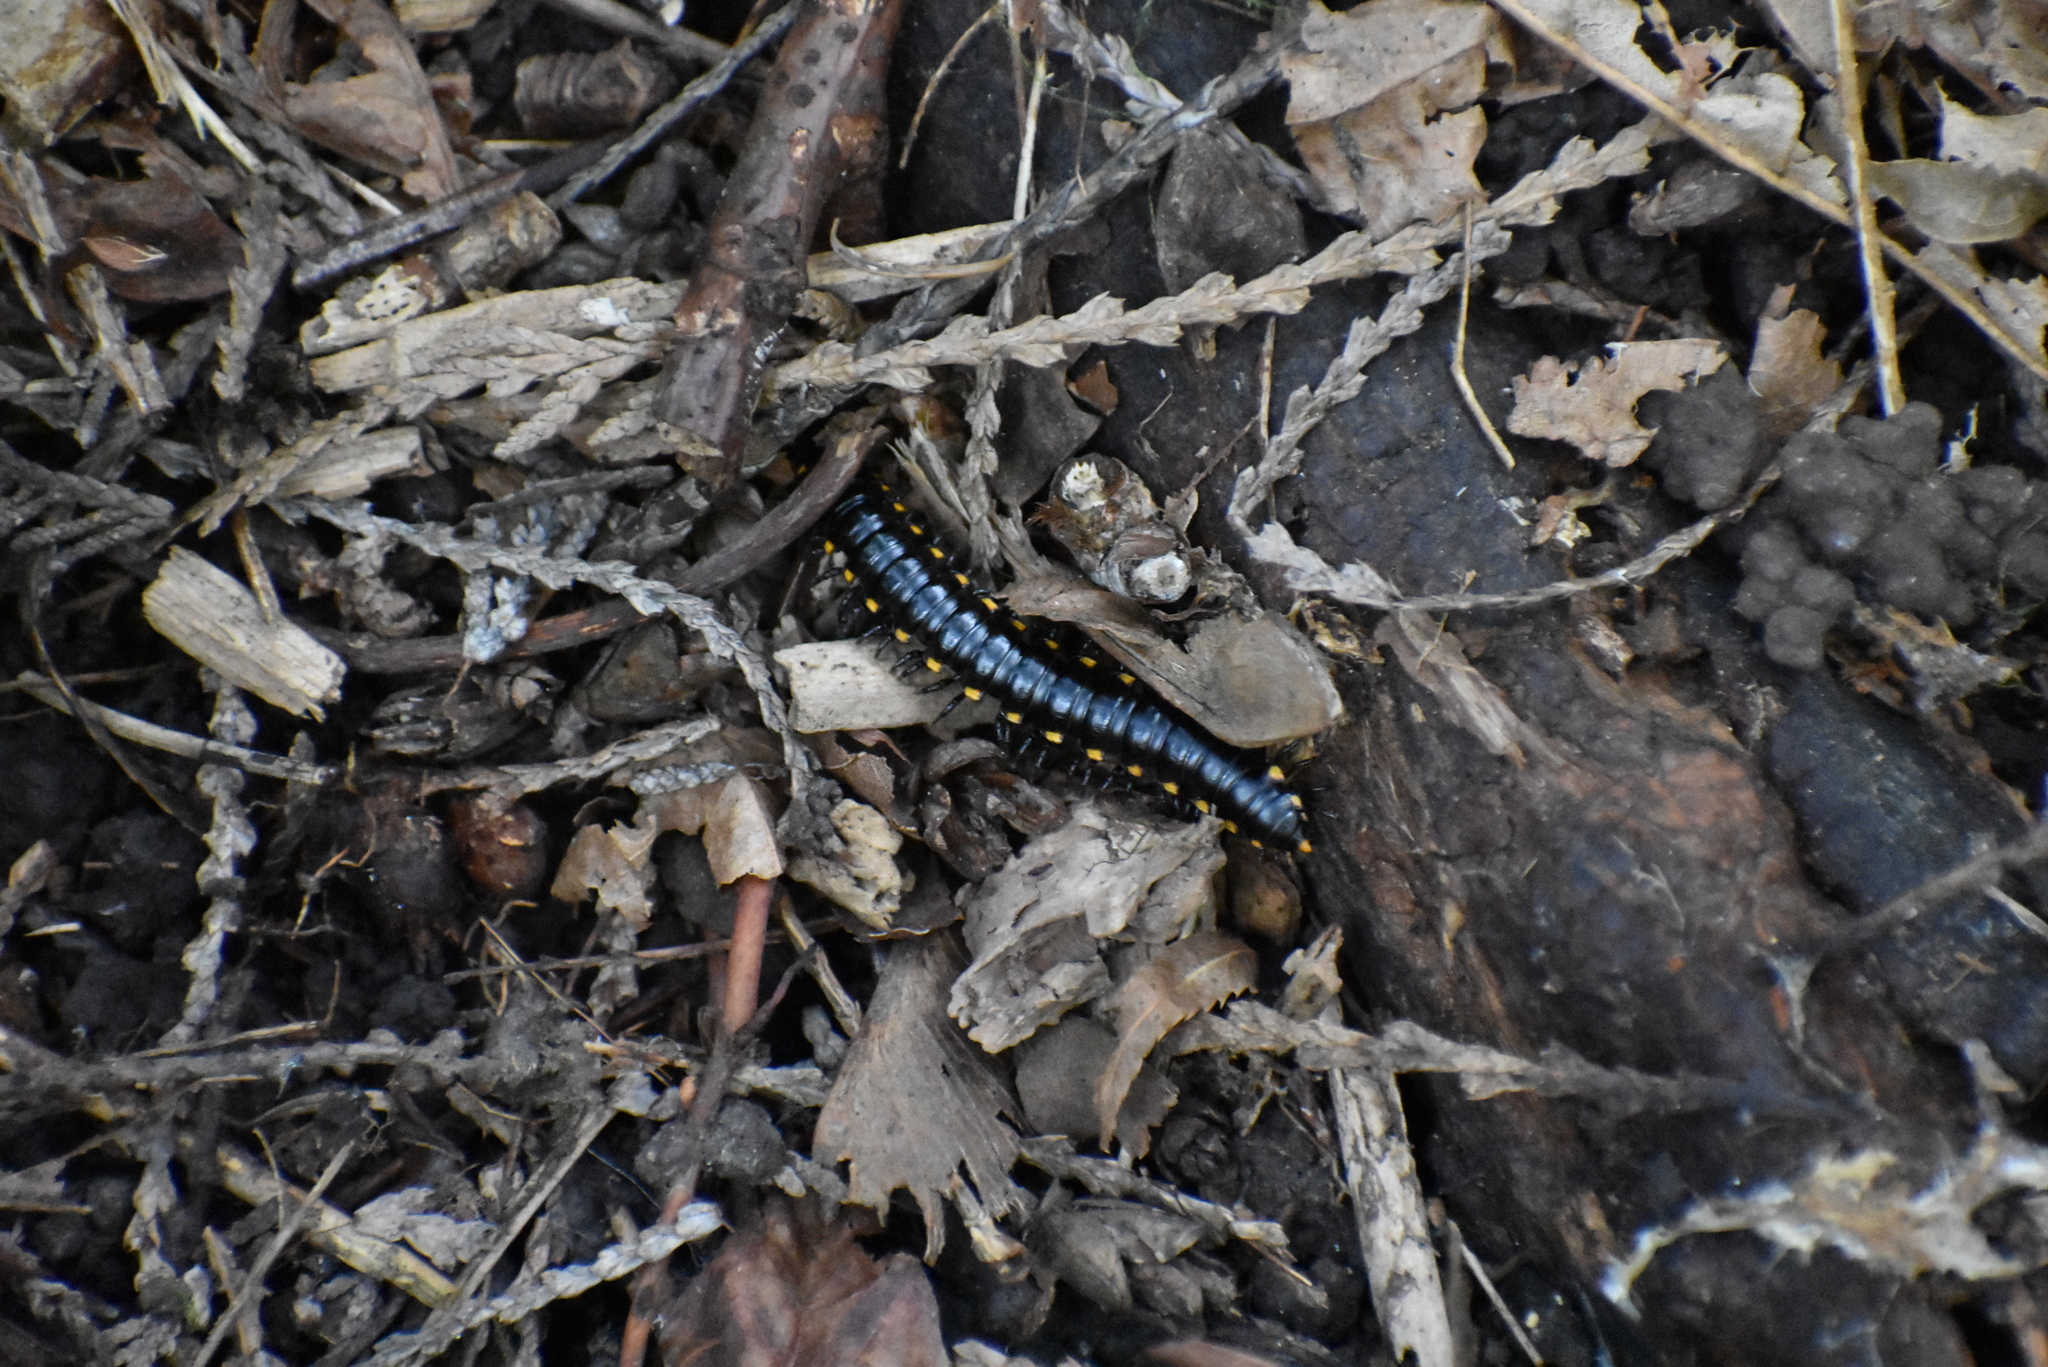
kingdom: Animalia
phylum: Arthropoda
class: Diplopoda
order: Polydesmida
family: Xystodesmidae
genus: Harpaphe
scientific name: Harpaphe haydeniana
